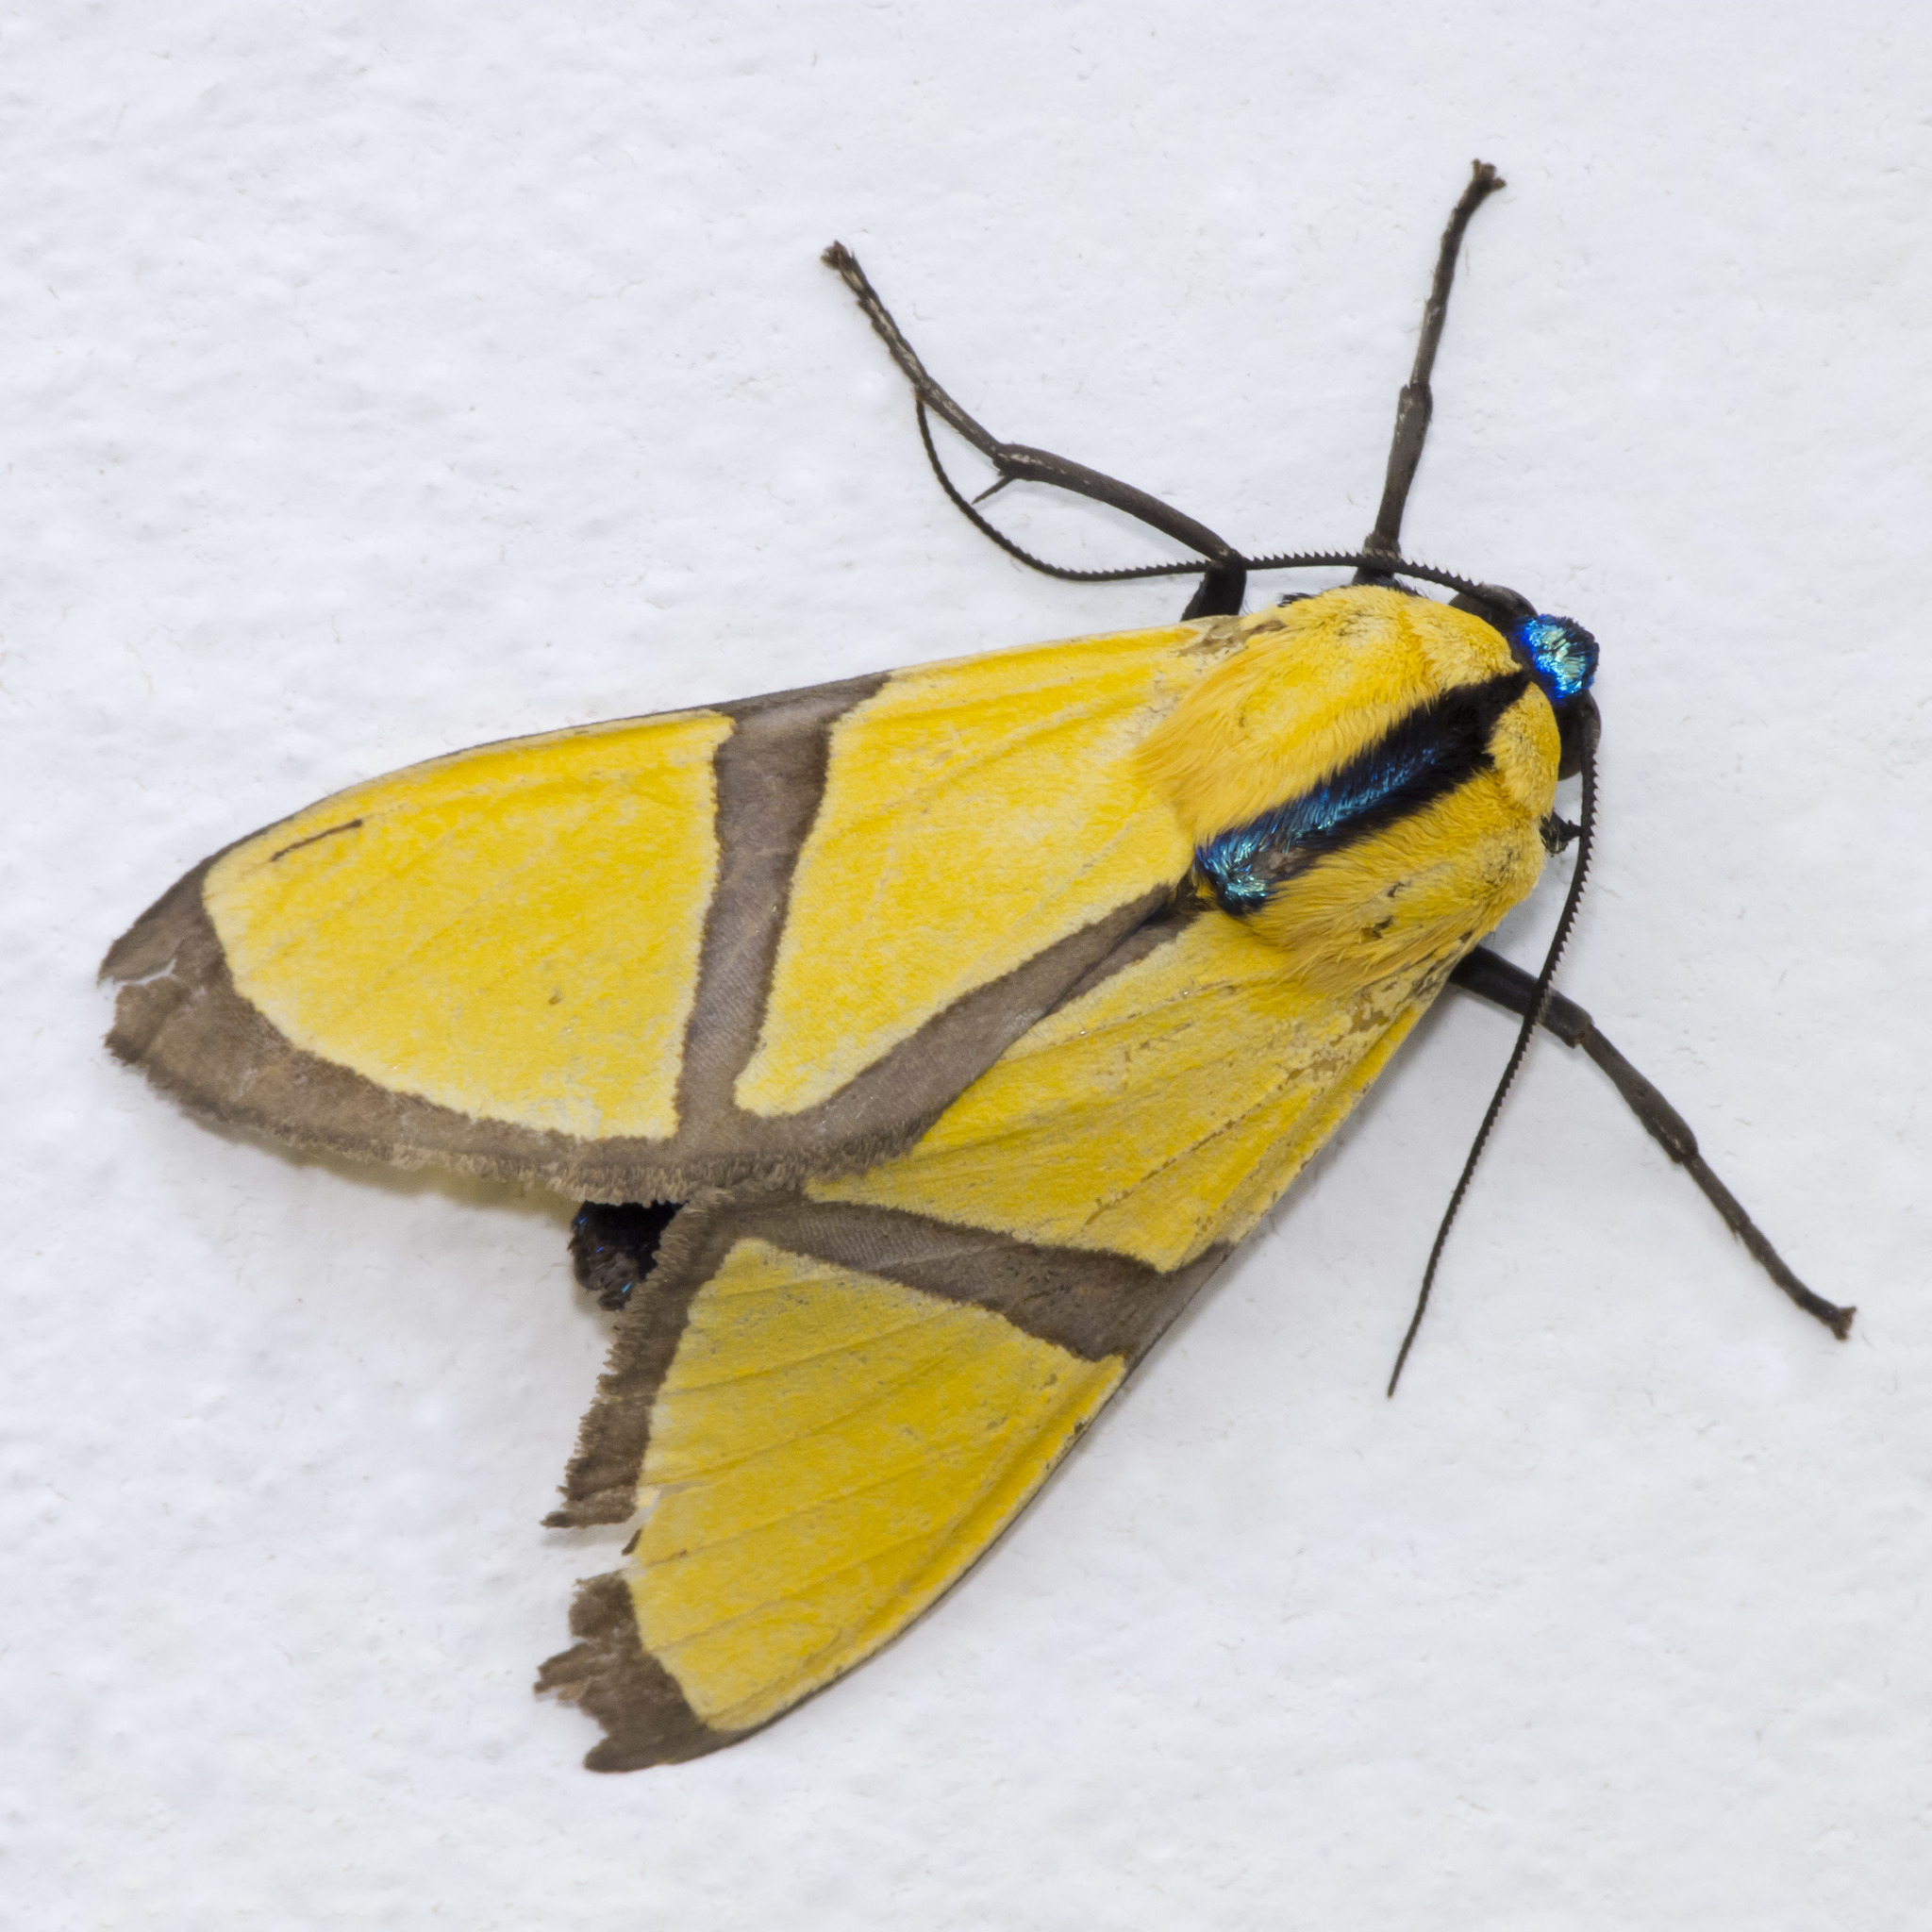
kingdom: Animalia
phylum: Arthropoda
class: Insecta
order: Lepidoptera
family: Erebidae
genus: Ormetica
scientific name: Ormetica ameoides
